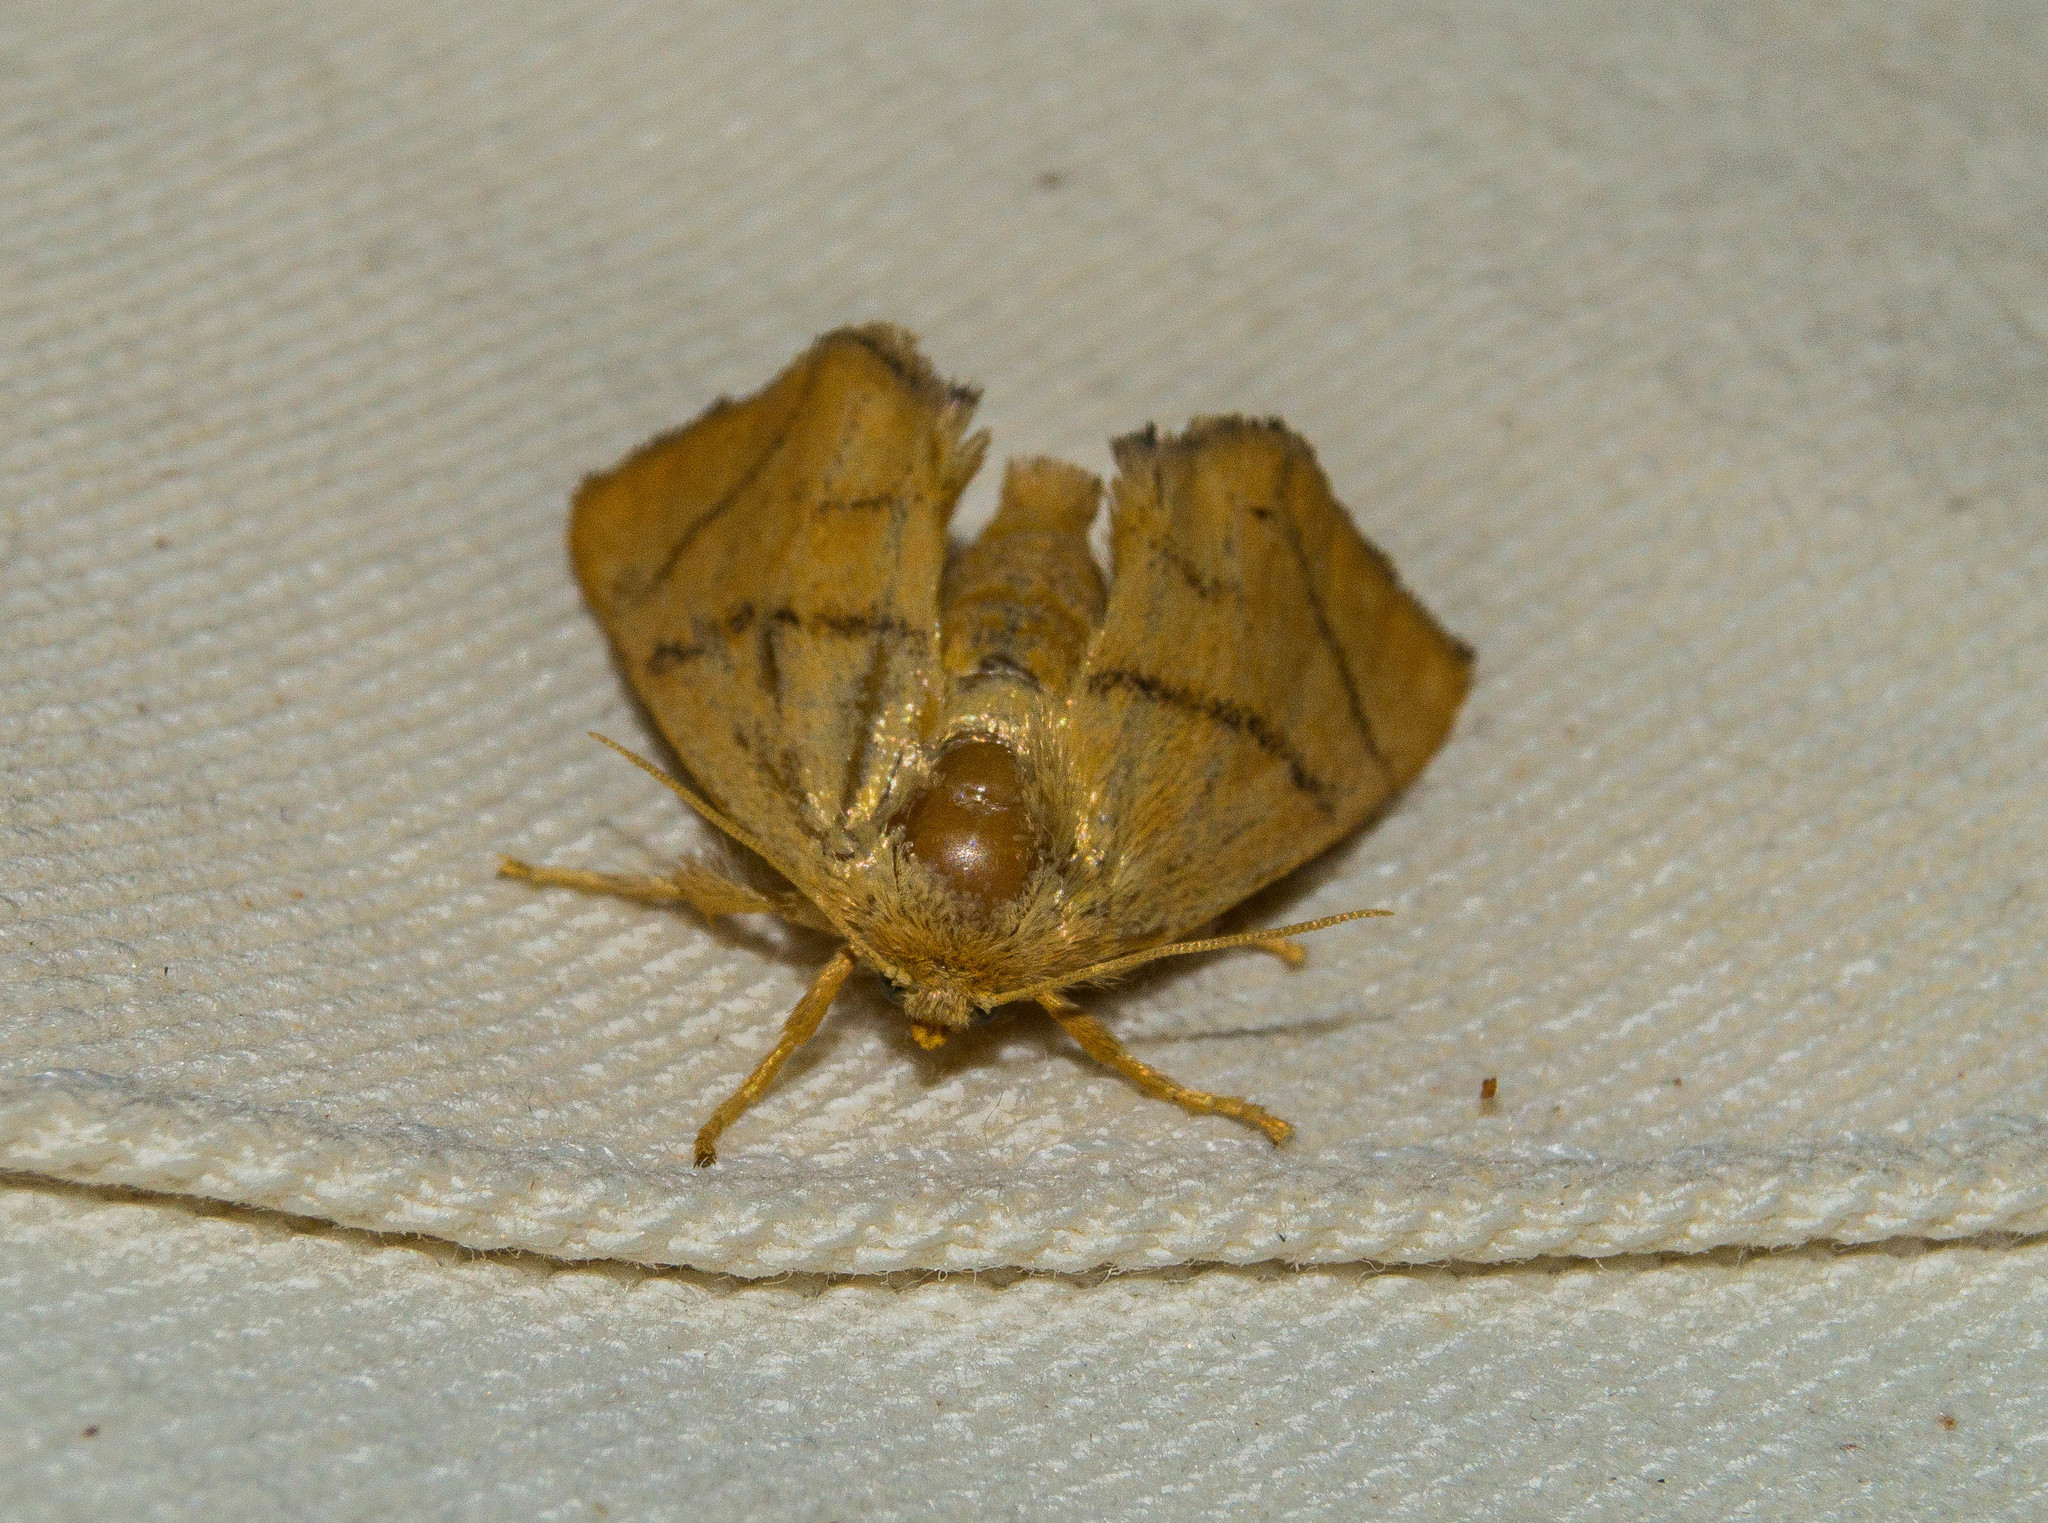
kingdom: Animalia
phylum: Arthropoda
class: Insecta
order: Lepidoptera
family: Limacodidae
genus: Apoda
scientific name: Apoda limacodes
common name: Festoon
